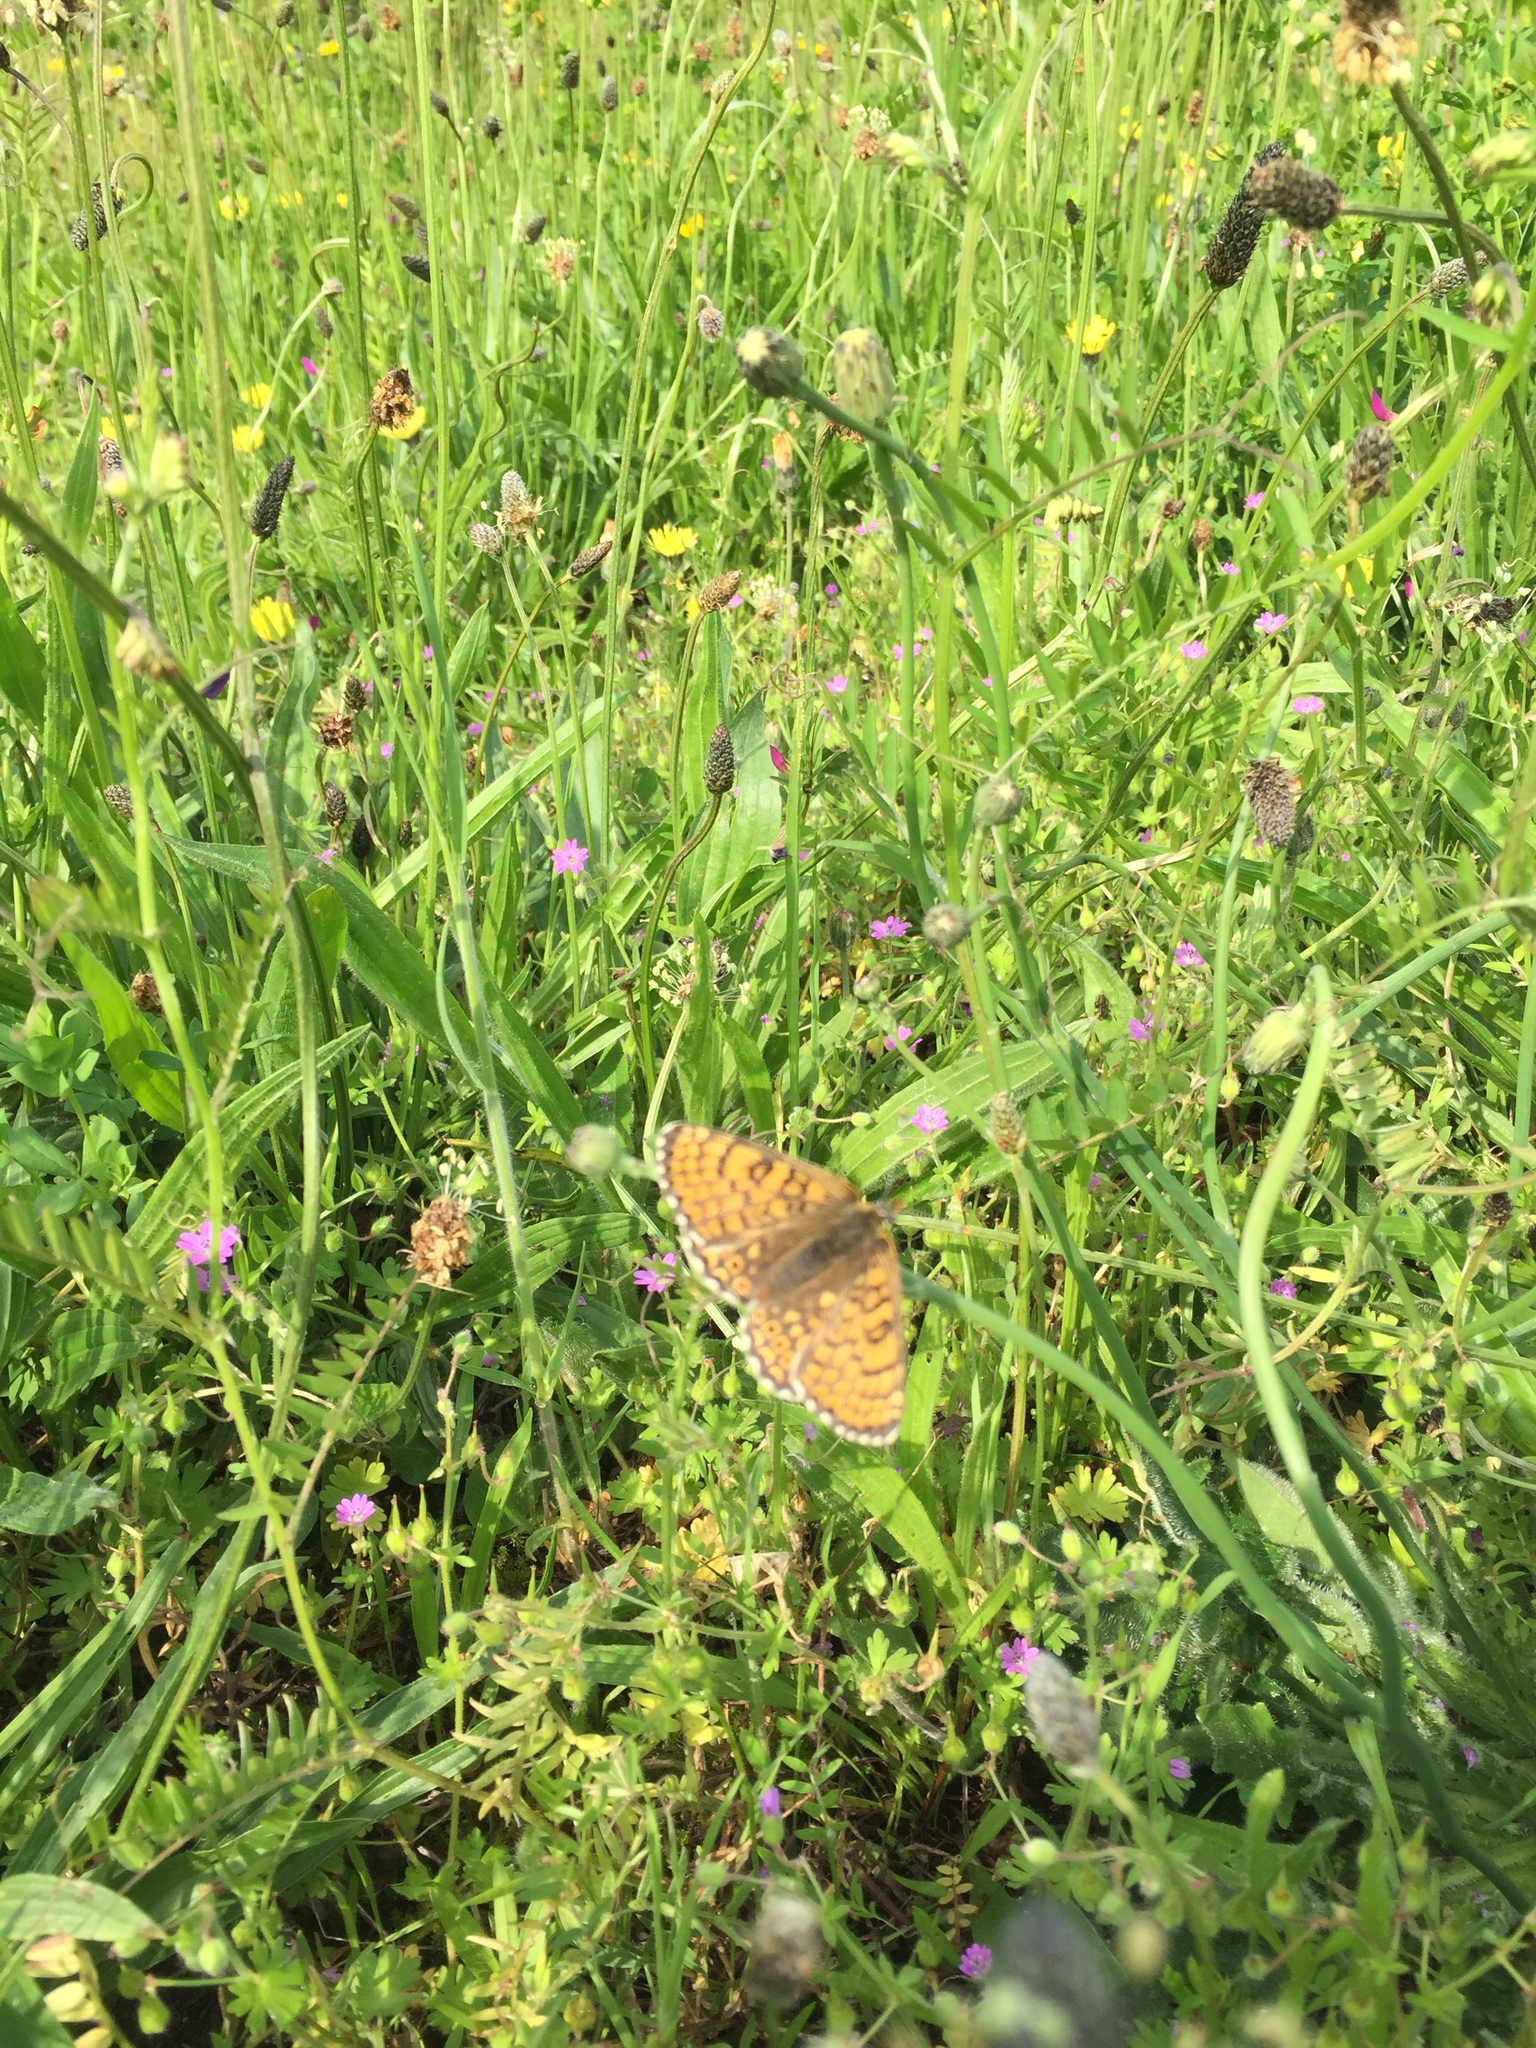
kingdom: Animalia
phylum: Arthropoda
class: Insecta
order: Lepidoptera
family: Nymphalidae
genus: Melitaea
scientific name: Melitaea cinxia
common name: Glanville fritillary
